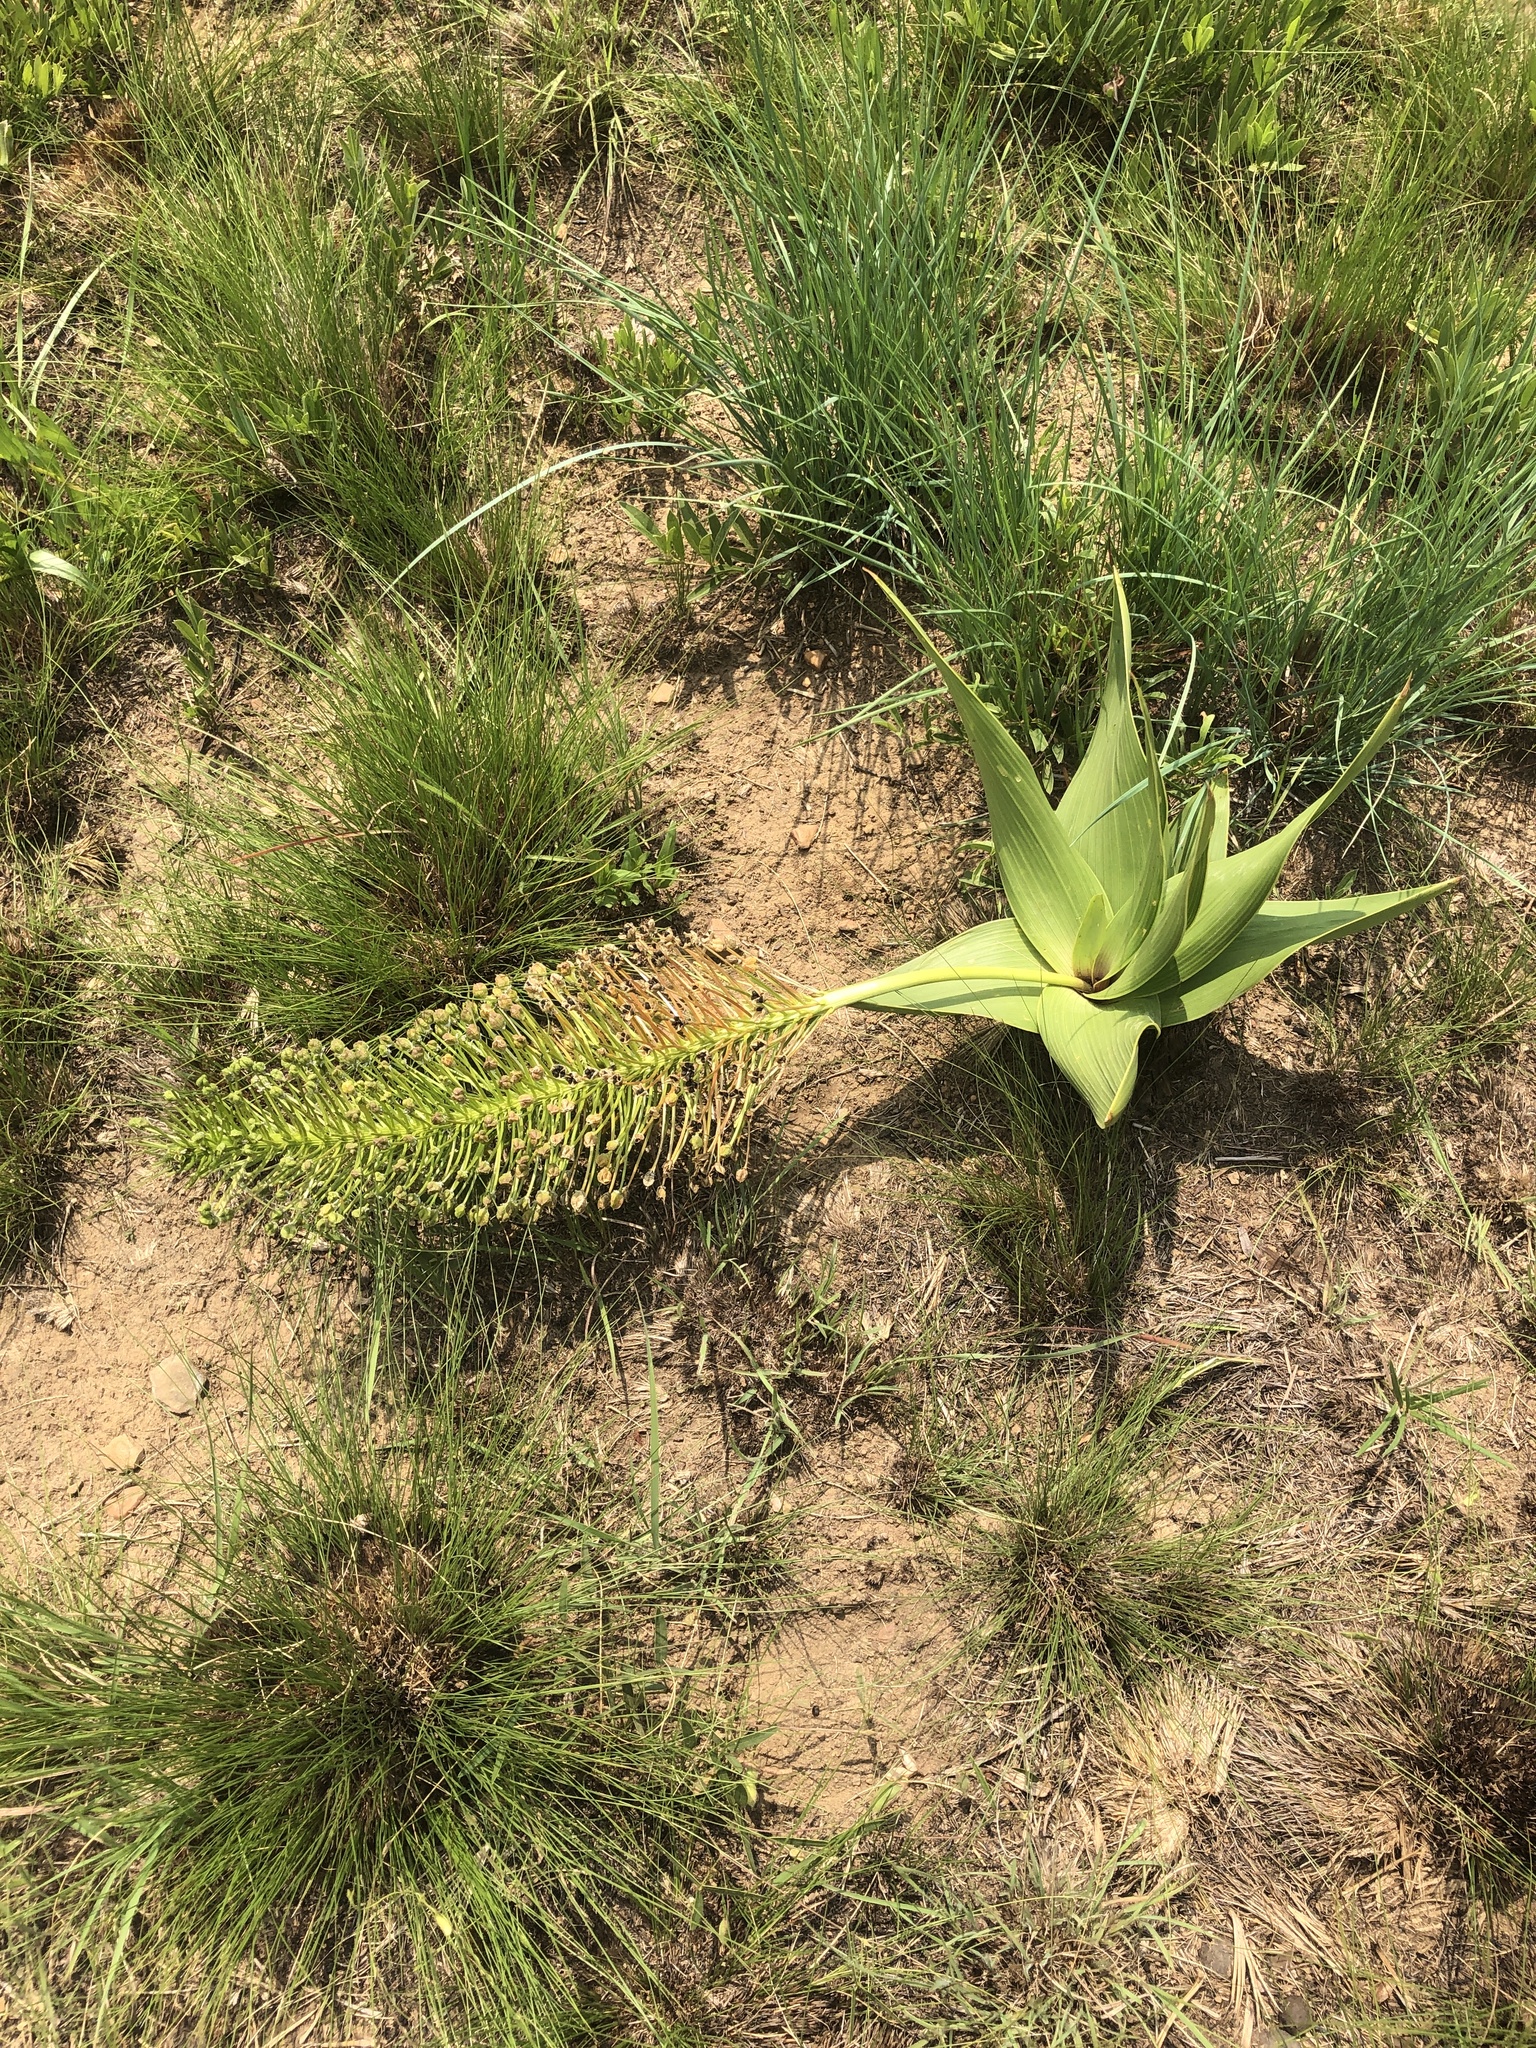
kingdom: Plantae
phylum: Tracheophyta
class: Liliopsida
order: Asparagales
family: Asparagaceae
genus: Schizocarphus
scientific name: Schizocarphus nervosus
